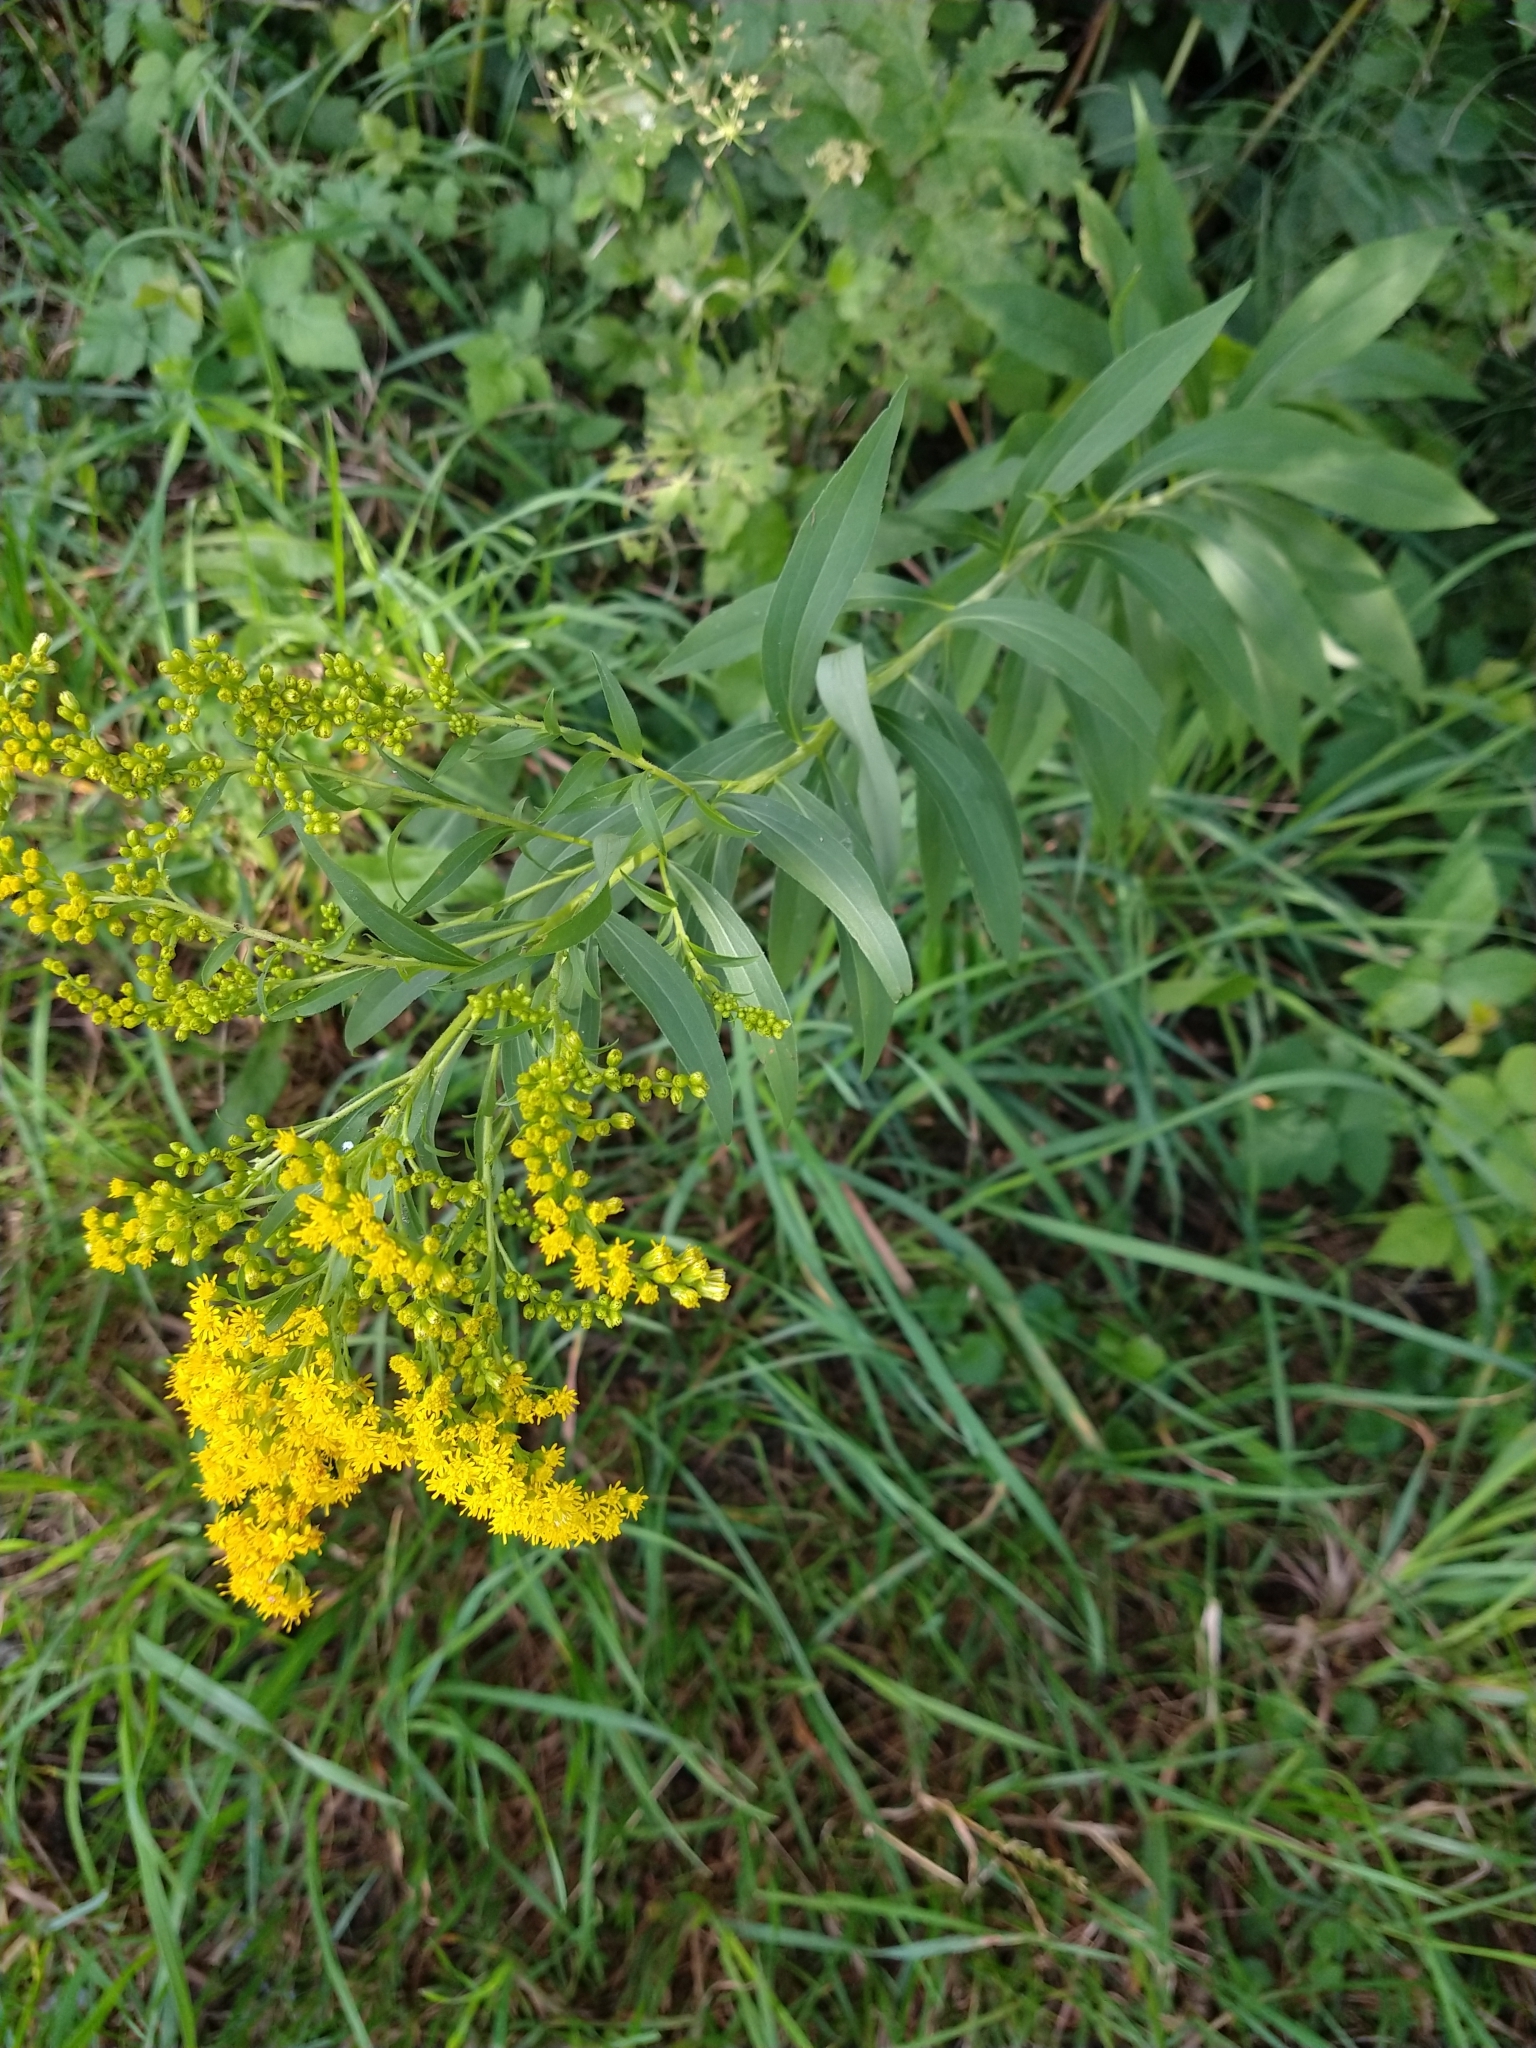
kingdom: Plantae
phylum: Tracheophyta
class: Magnoliopsida
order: Asterales
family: Asteraceae
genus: Solidago
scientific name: Solidago gigantea
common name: Giant goldenrod
